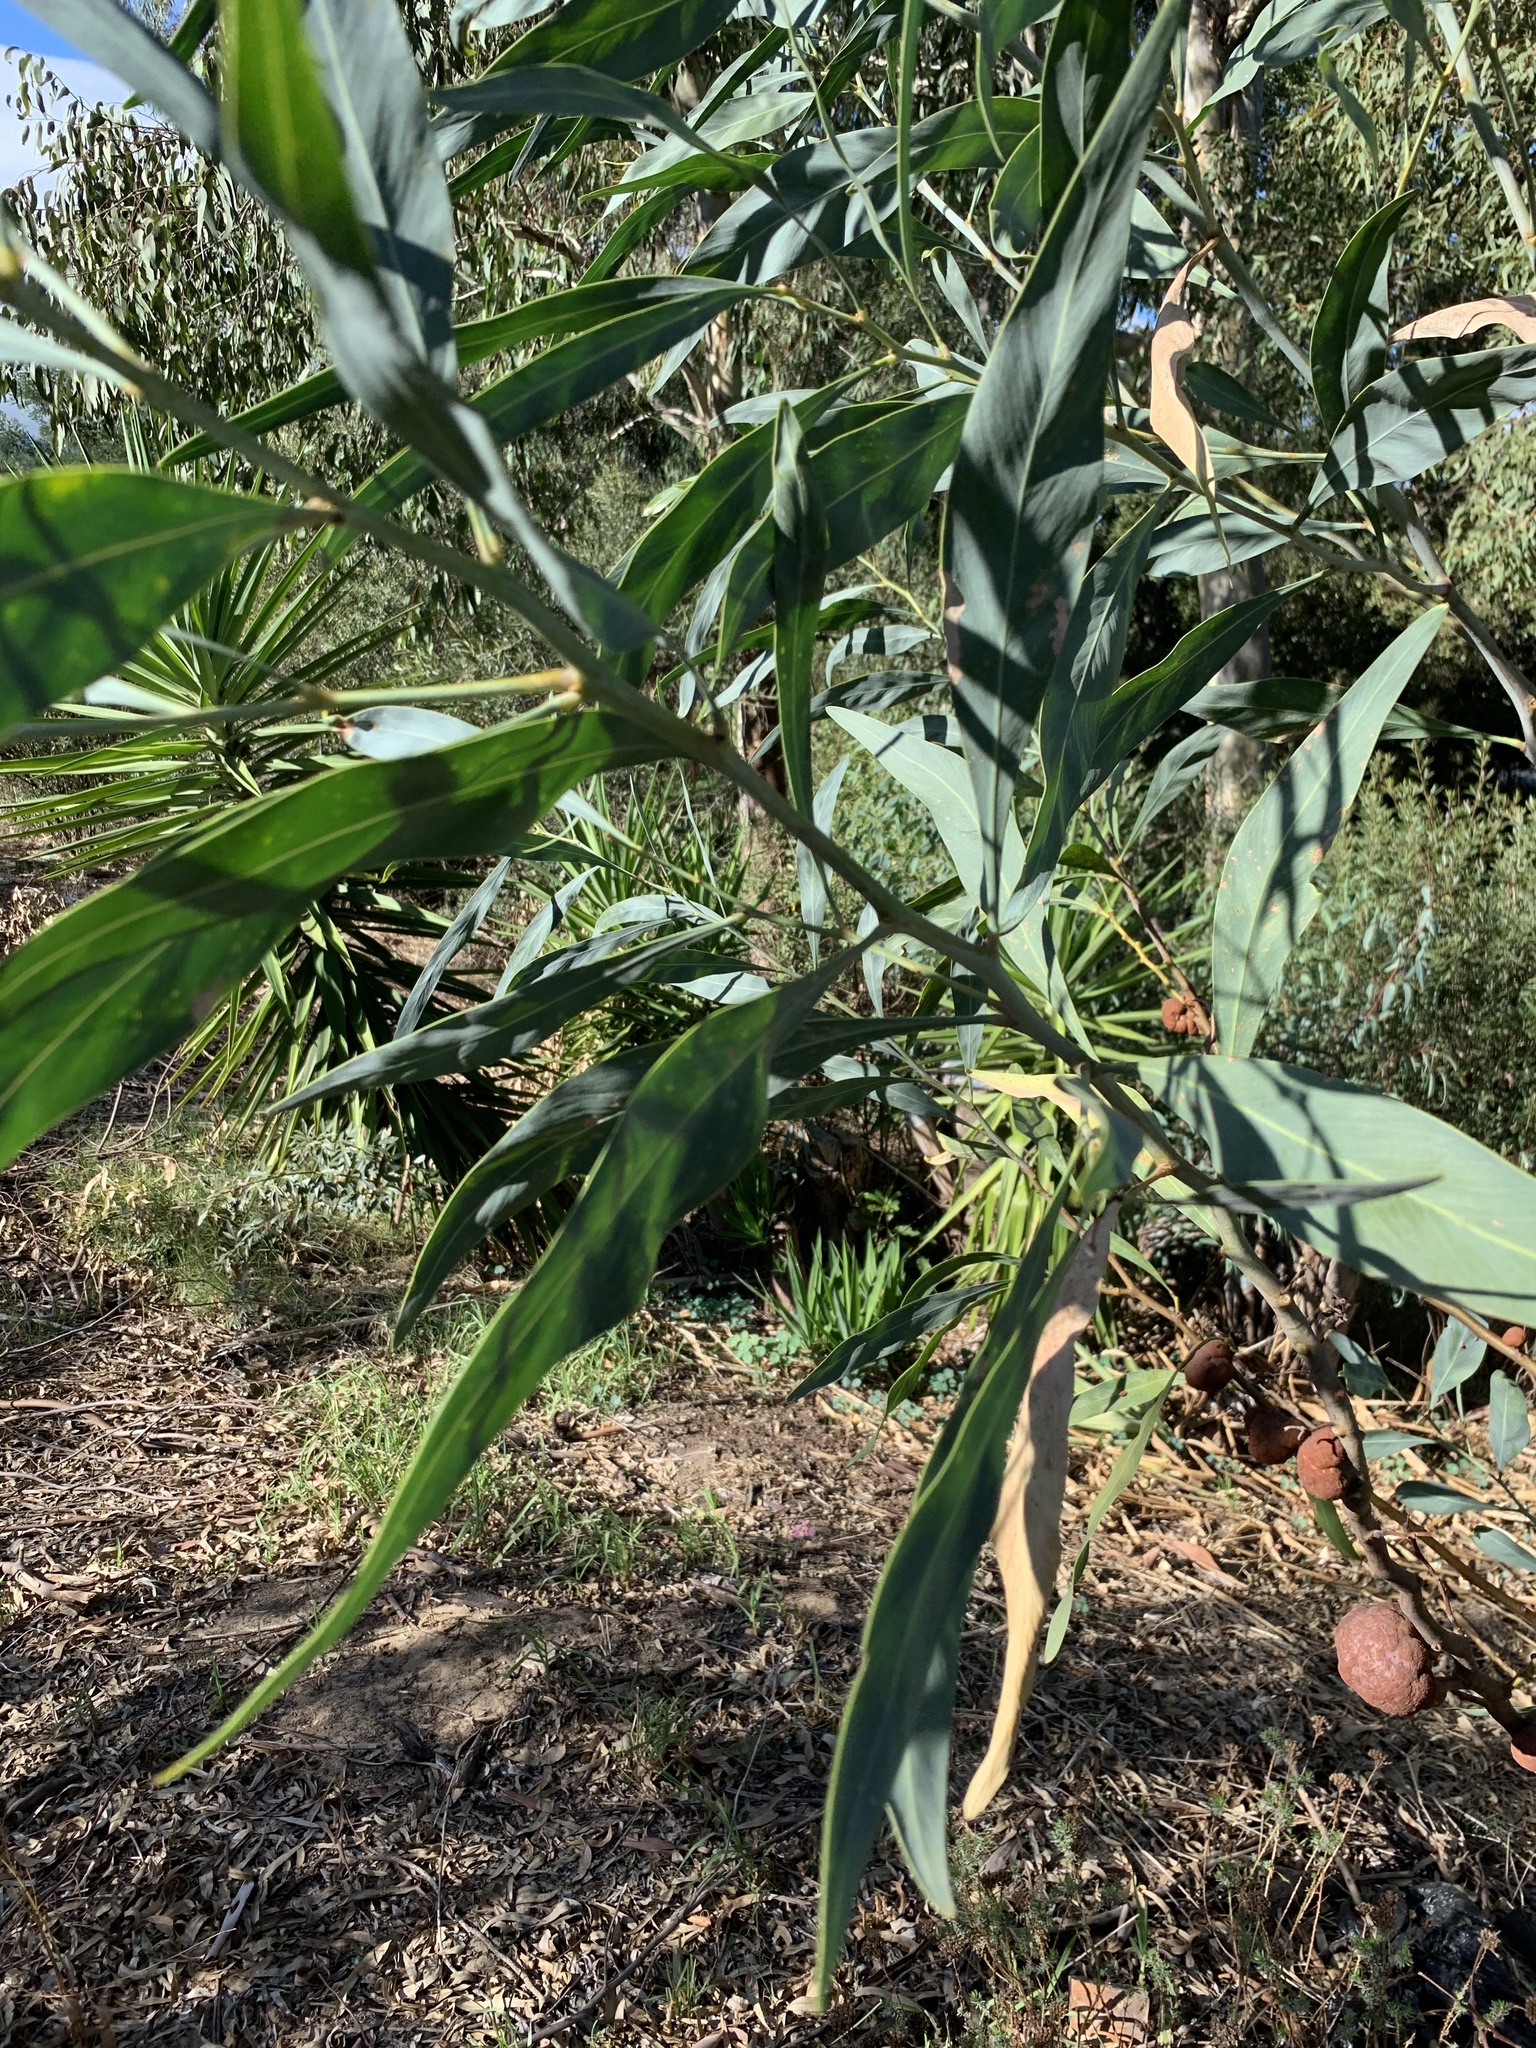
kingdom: Plantae
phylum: Tracheophyta
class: Magnoliopsida
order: Fabales
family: Fabaceae
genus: Acacia
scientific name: Acacia saligna
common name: Orange wattle
